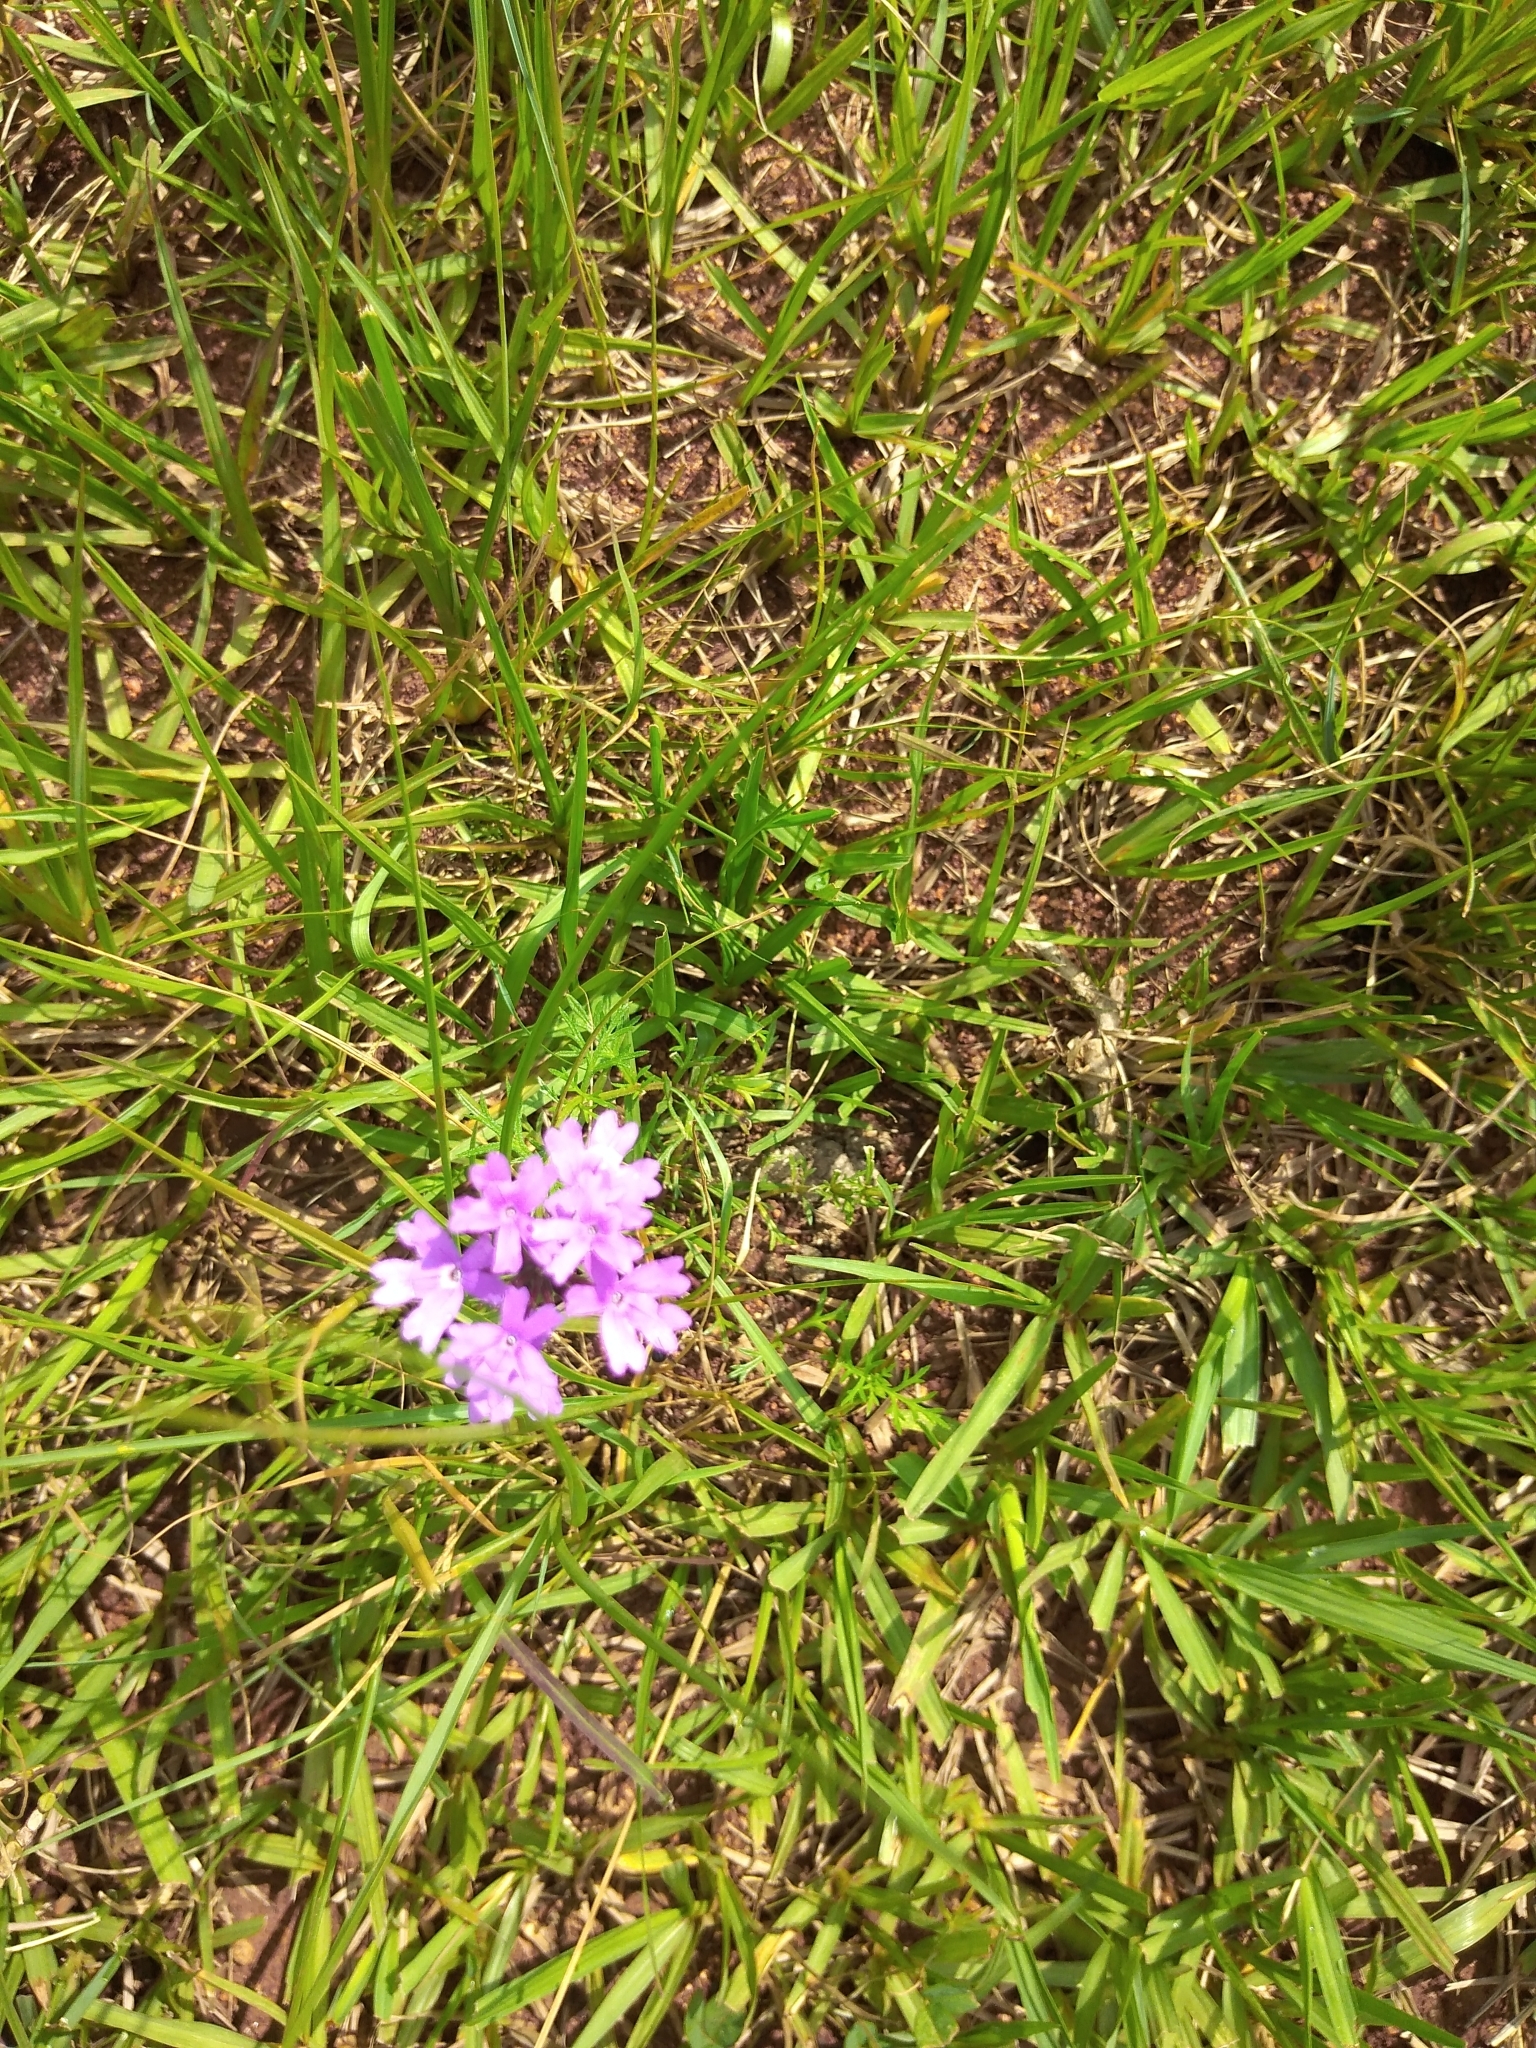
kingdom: Plantae
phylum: Tracheophyta
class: Magnoliopsida
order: Lamiales
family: Verbenaceae
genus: Verbena
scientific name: Verbena aristigera
